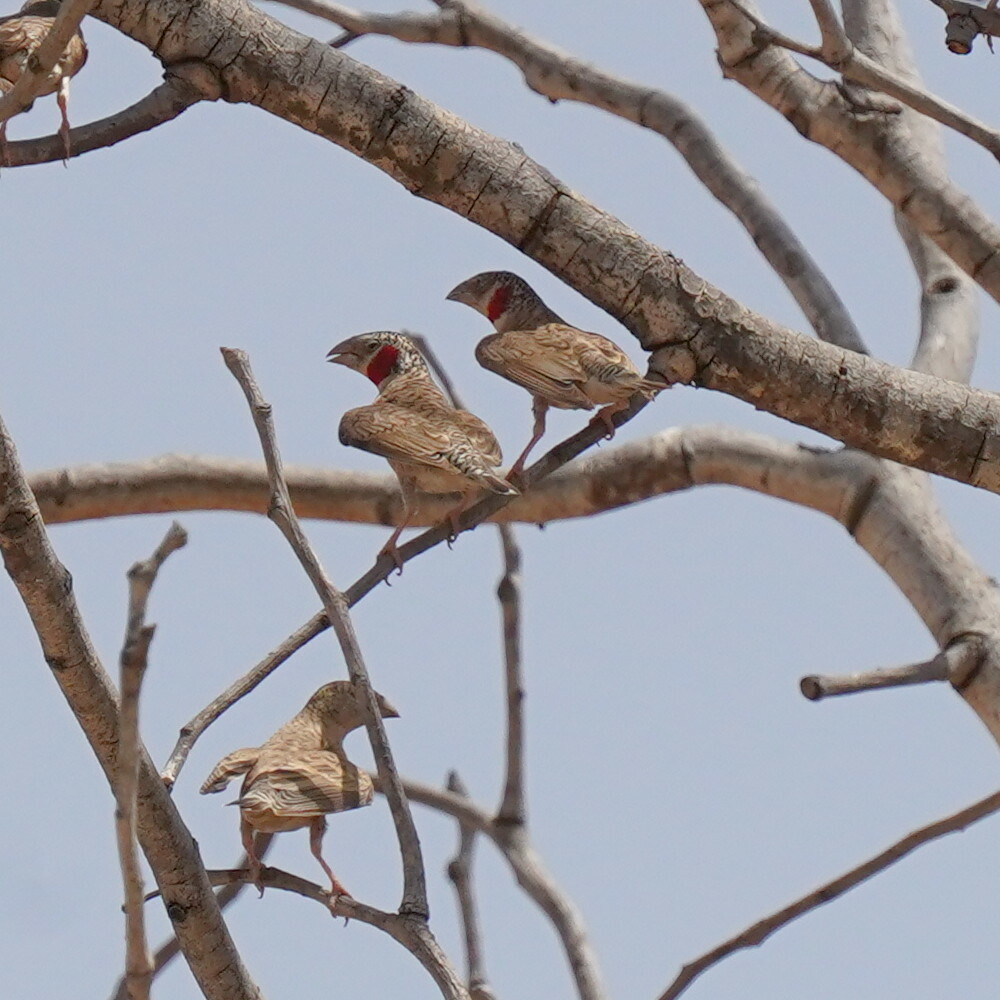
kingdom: Animalia
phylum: Chordata
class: Aves
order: Passeriformes
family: Estrildidae
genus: Amadina
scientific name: Amadina fasciata
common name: Cut-throat finch
